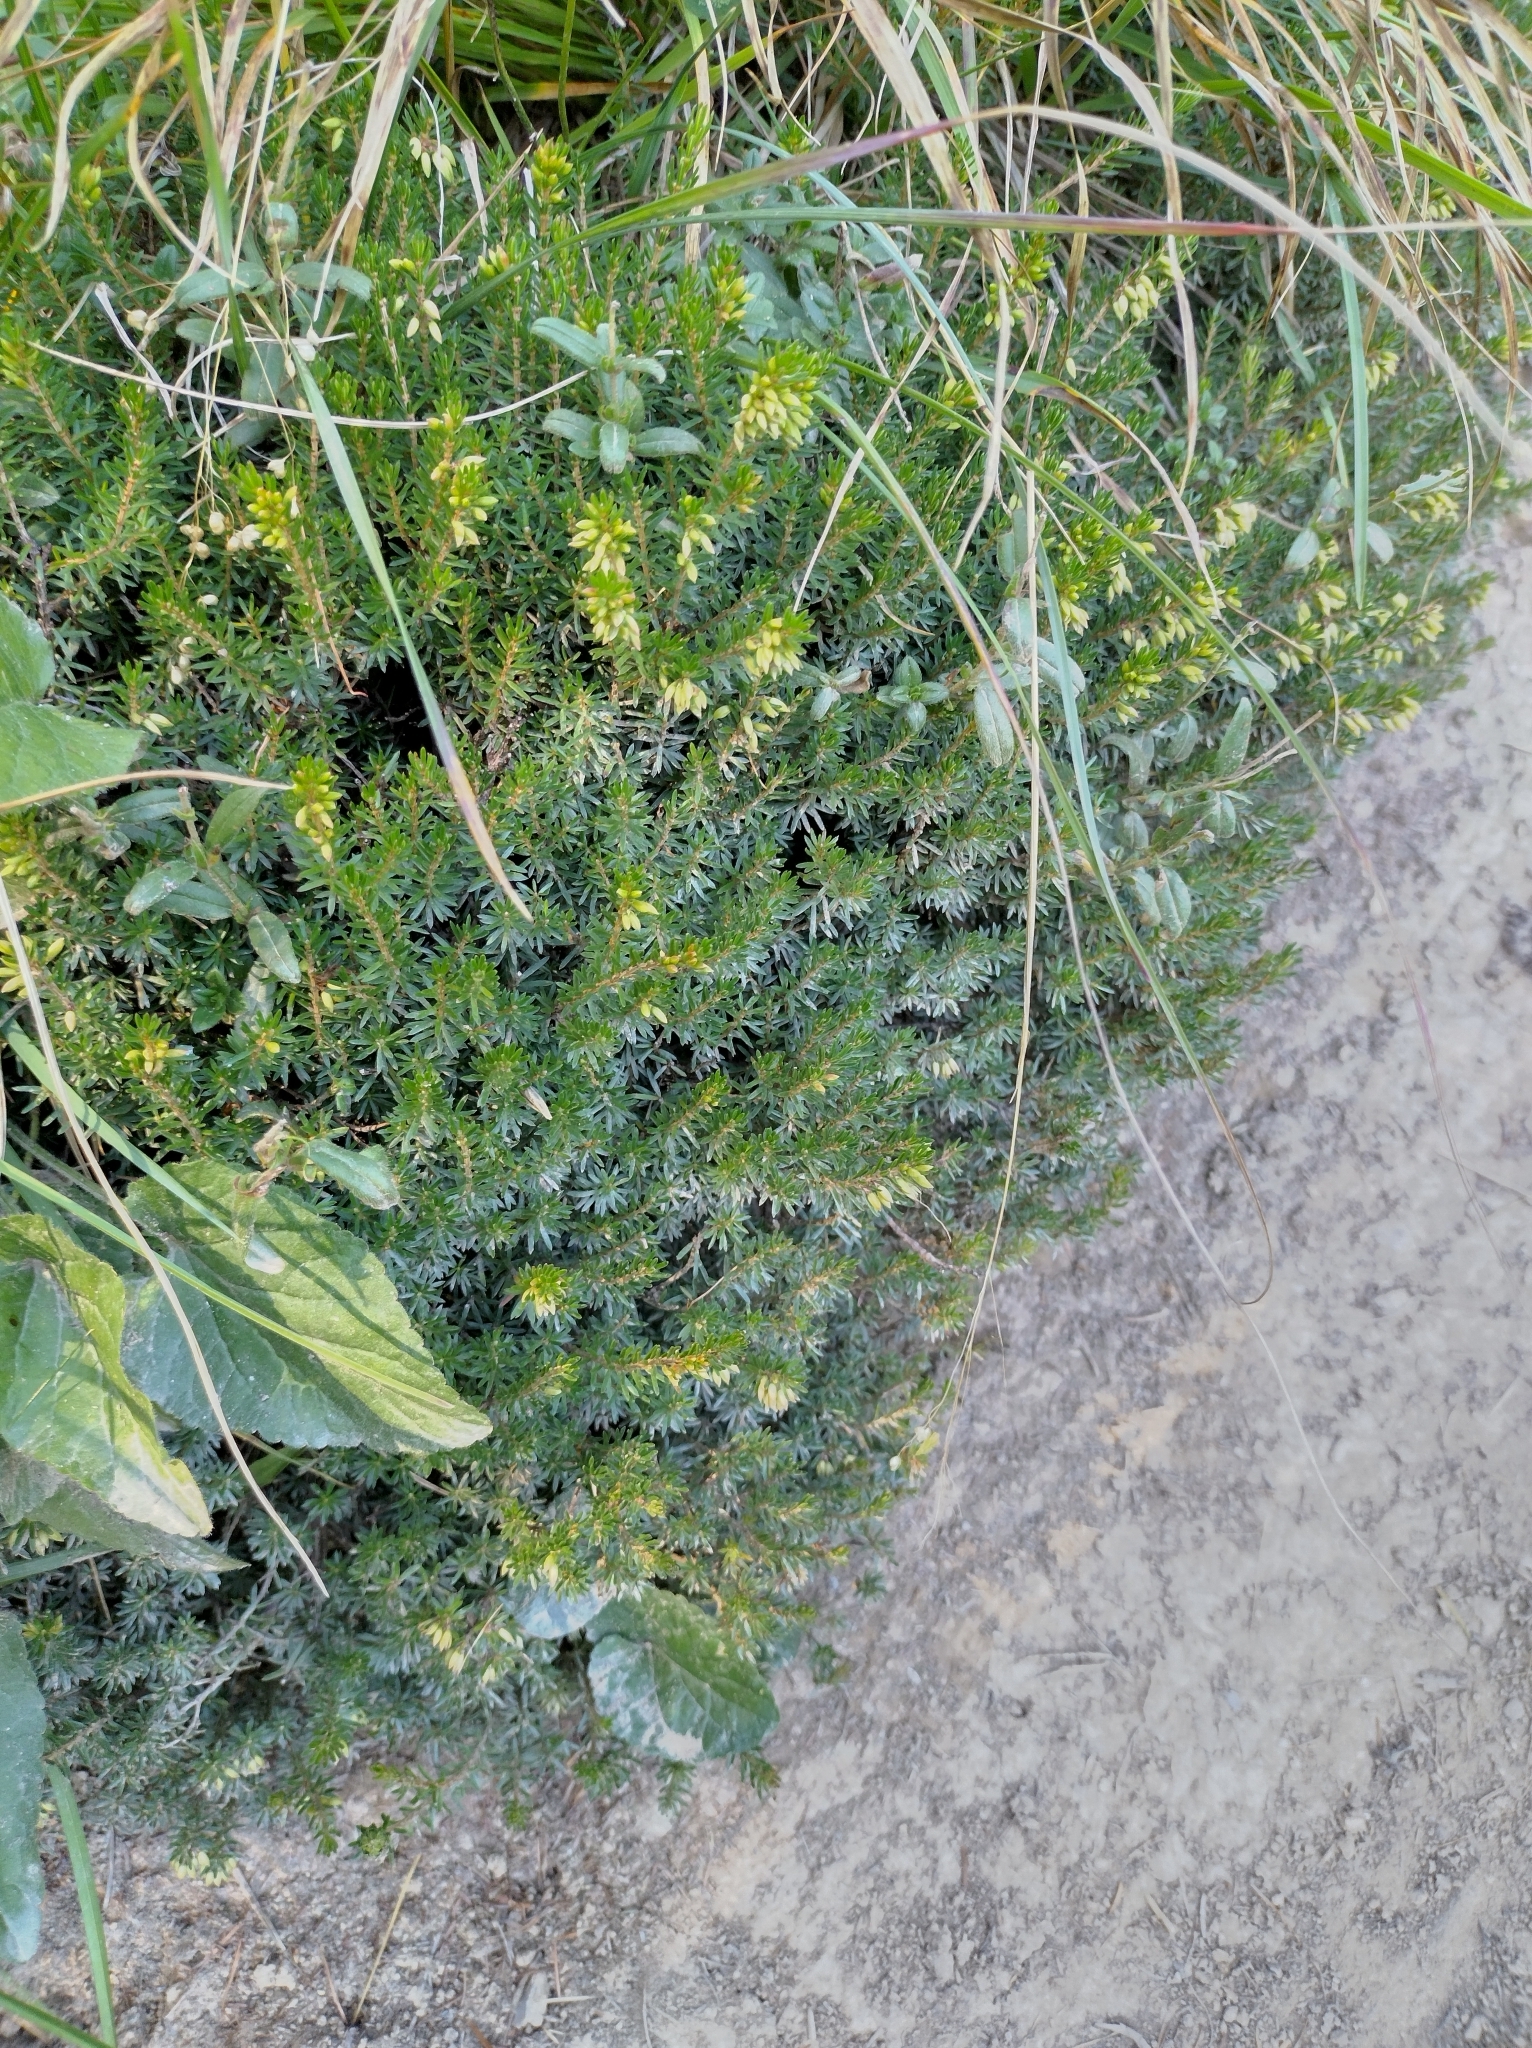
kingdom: Plantae
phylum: Tracheophyta
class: Magnoliopsida
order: Ericales
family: Ericaceae
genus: Erica
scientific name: Erica carnea
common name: Winter heath
